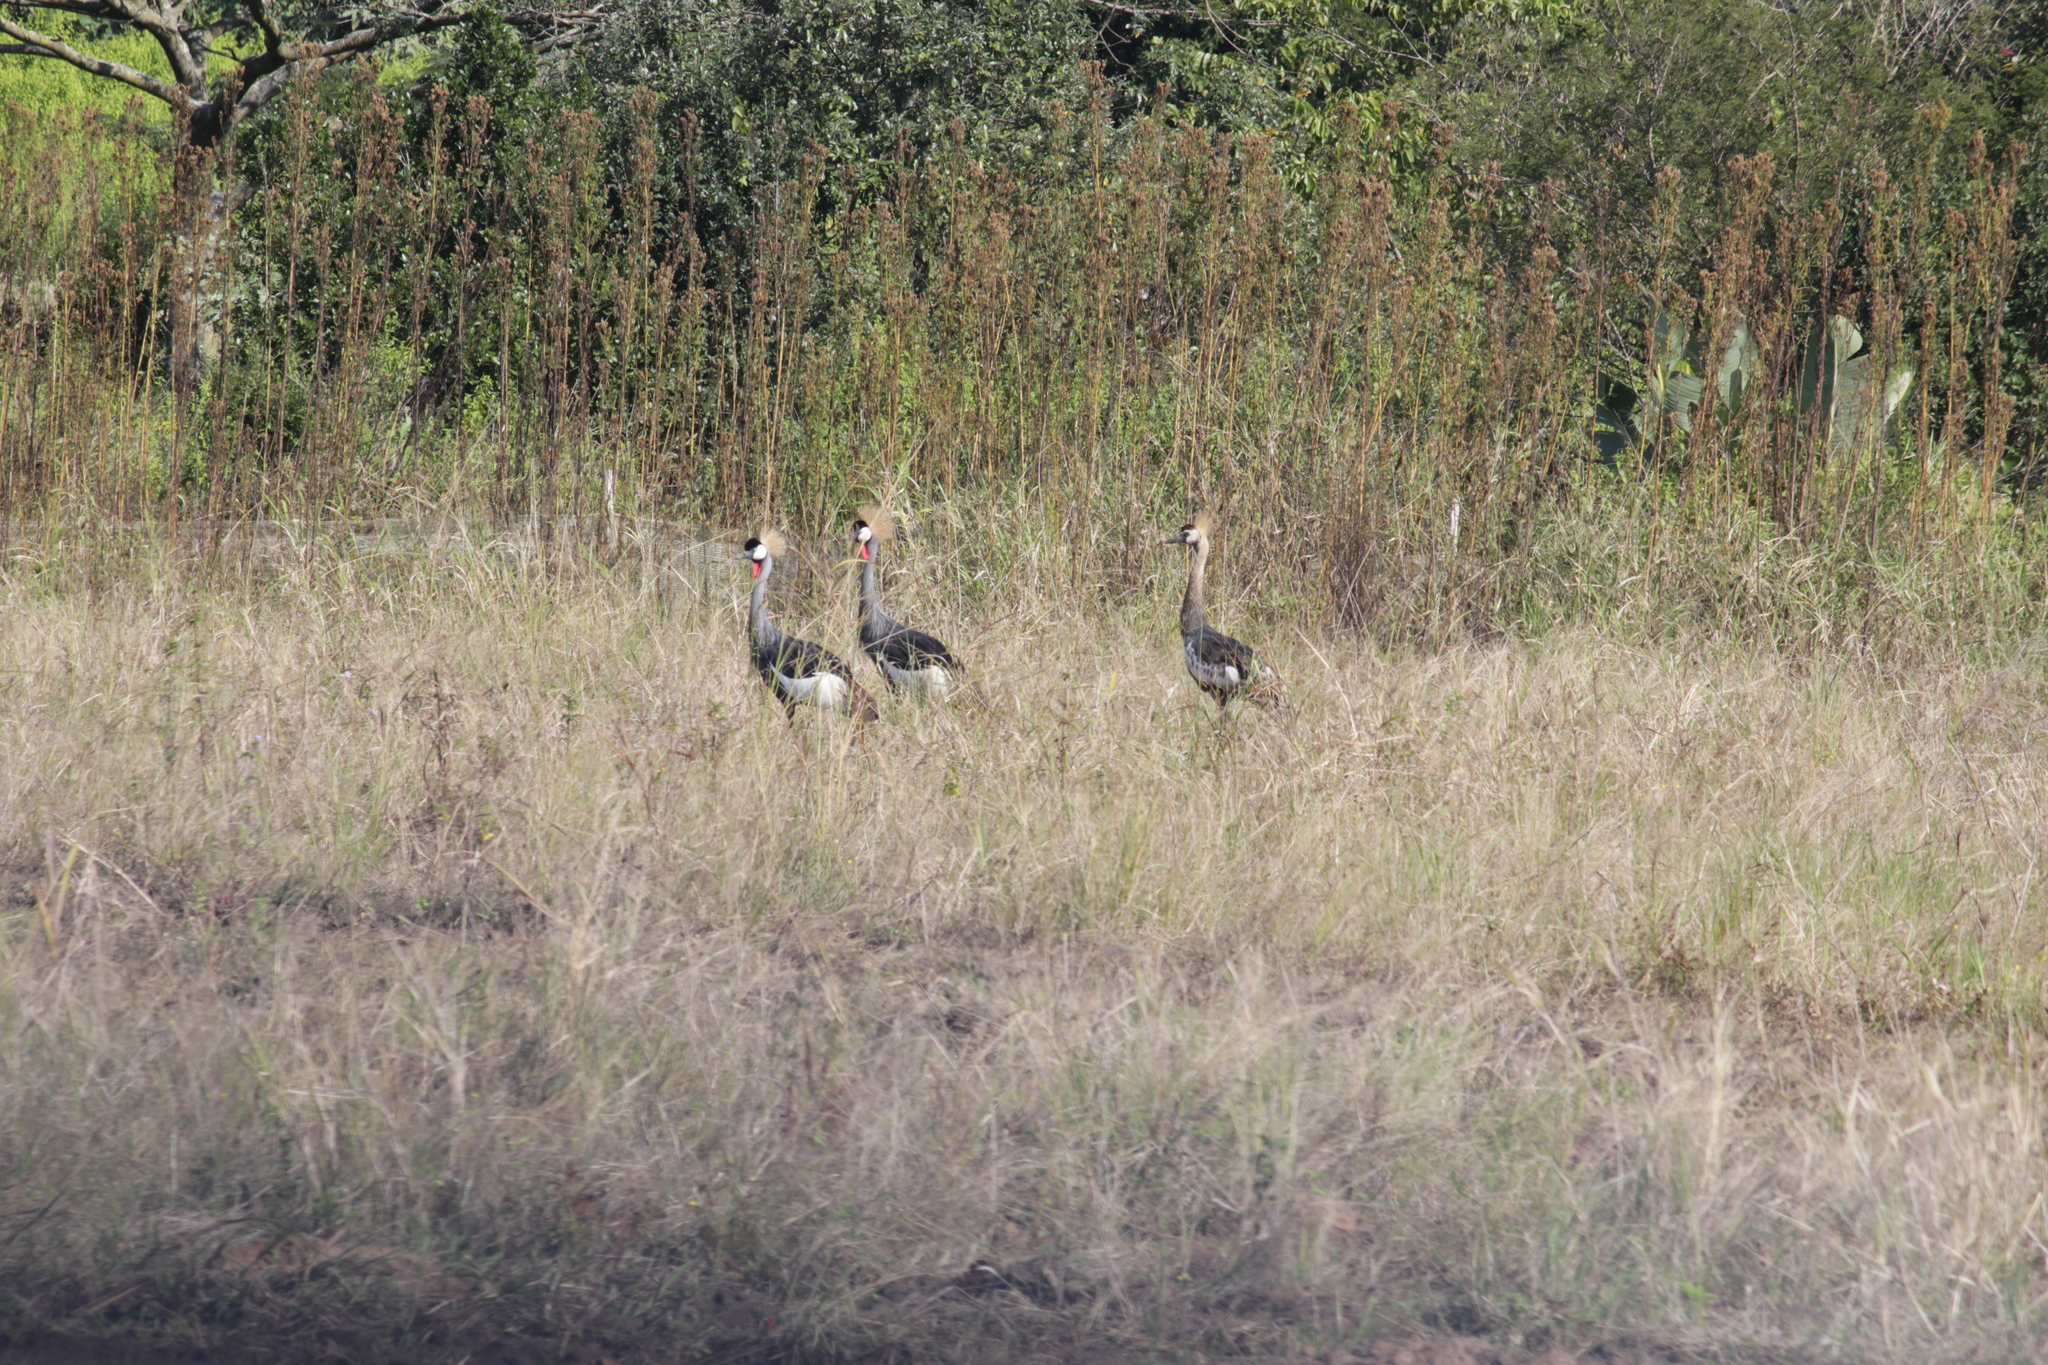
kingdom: Animalia
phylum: Chordata
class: Aves
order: Gruiformes
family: Gruidae
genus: Balearica
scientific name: Balearica regulorum
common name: Grey crowned crane
